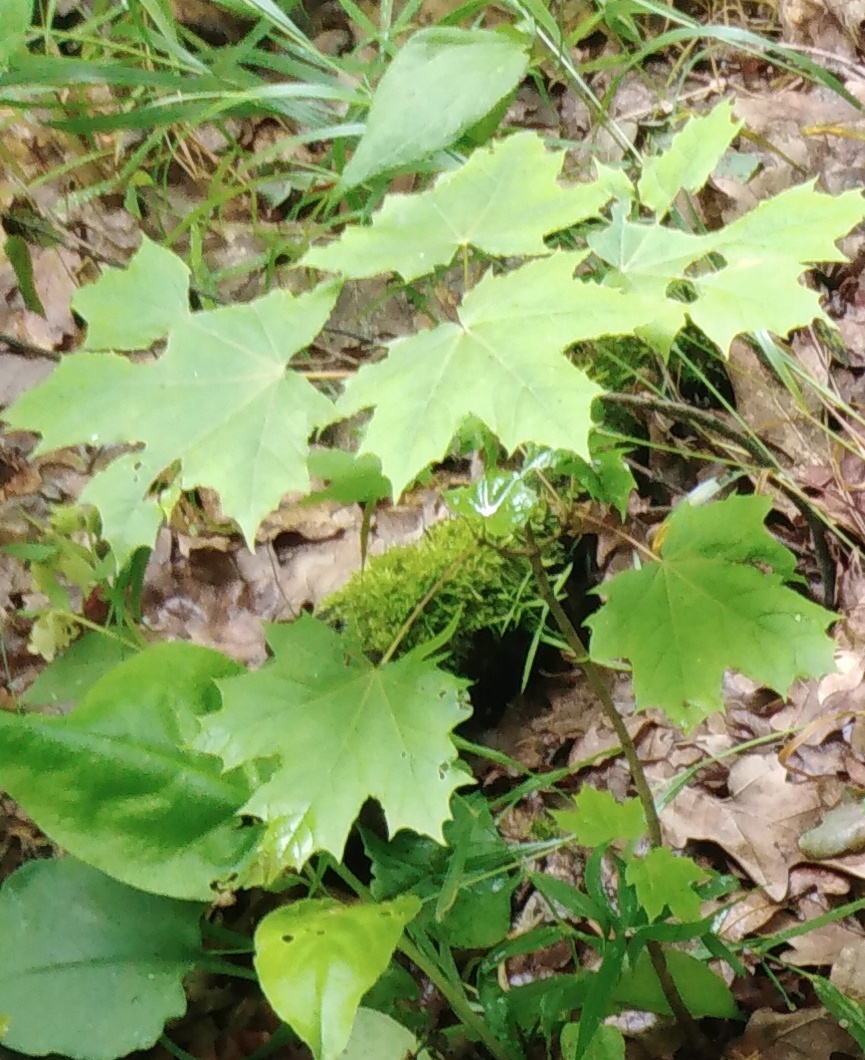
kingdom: Plantae
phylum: Tracheophyta
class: Magnoliopsida
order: Sapindales
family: Sapindaceae
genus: Acer
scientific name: Acer platanoides
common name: Norway maple
